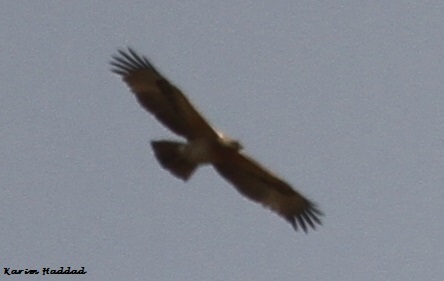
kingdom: Animalia
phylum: Chordata
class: Aves
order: Accipitriformes
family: Accipitridae
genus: Aquila
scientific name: Aquila fasciata
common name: Bonelli's eagle
